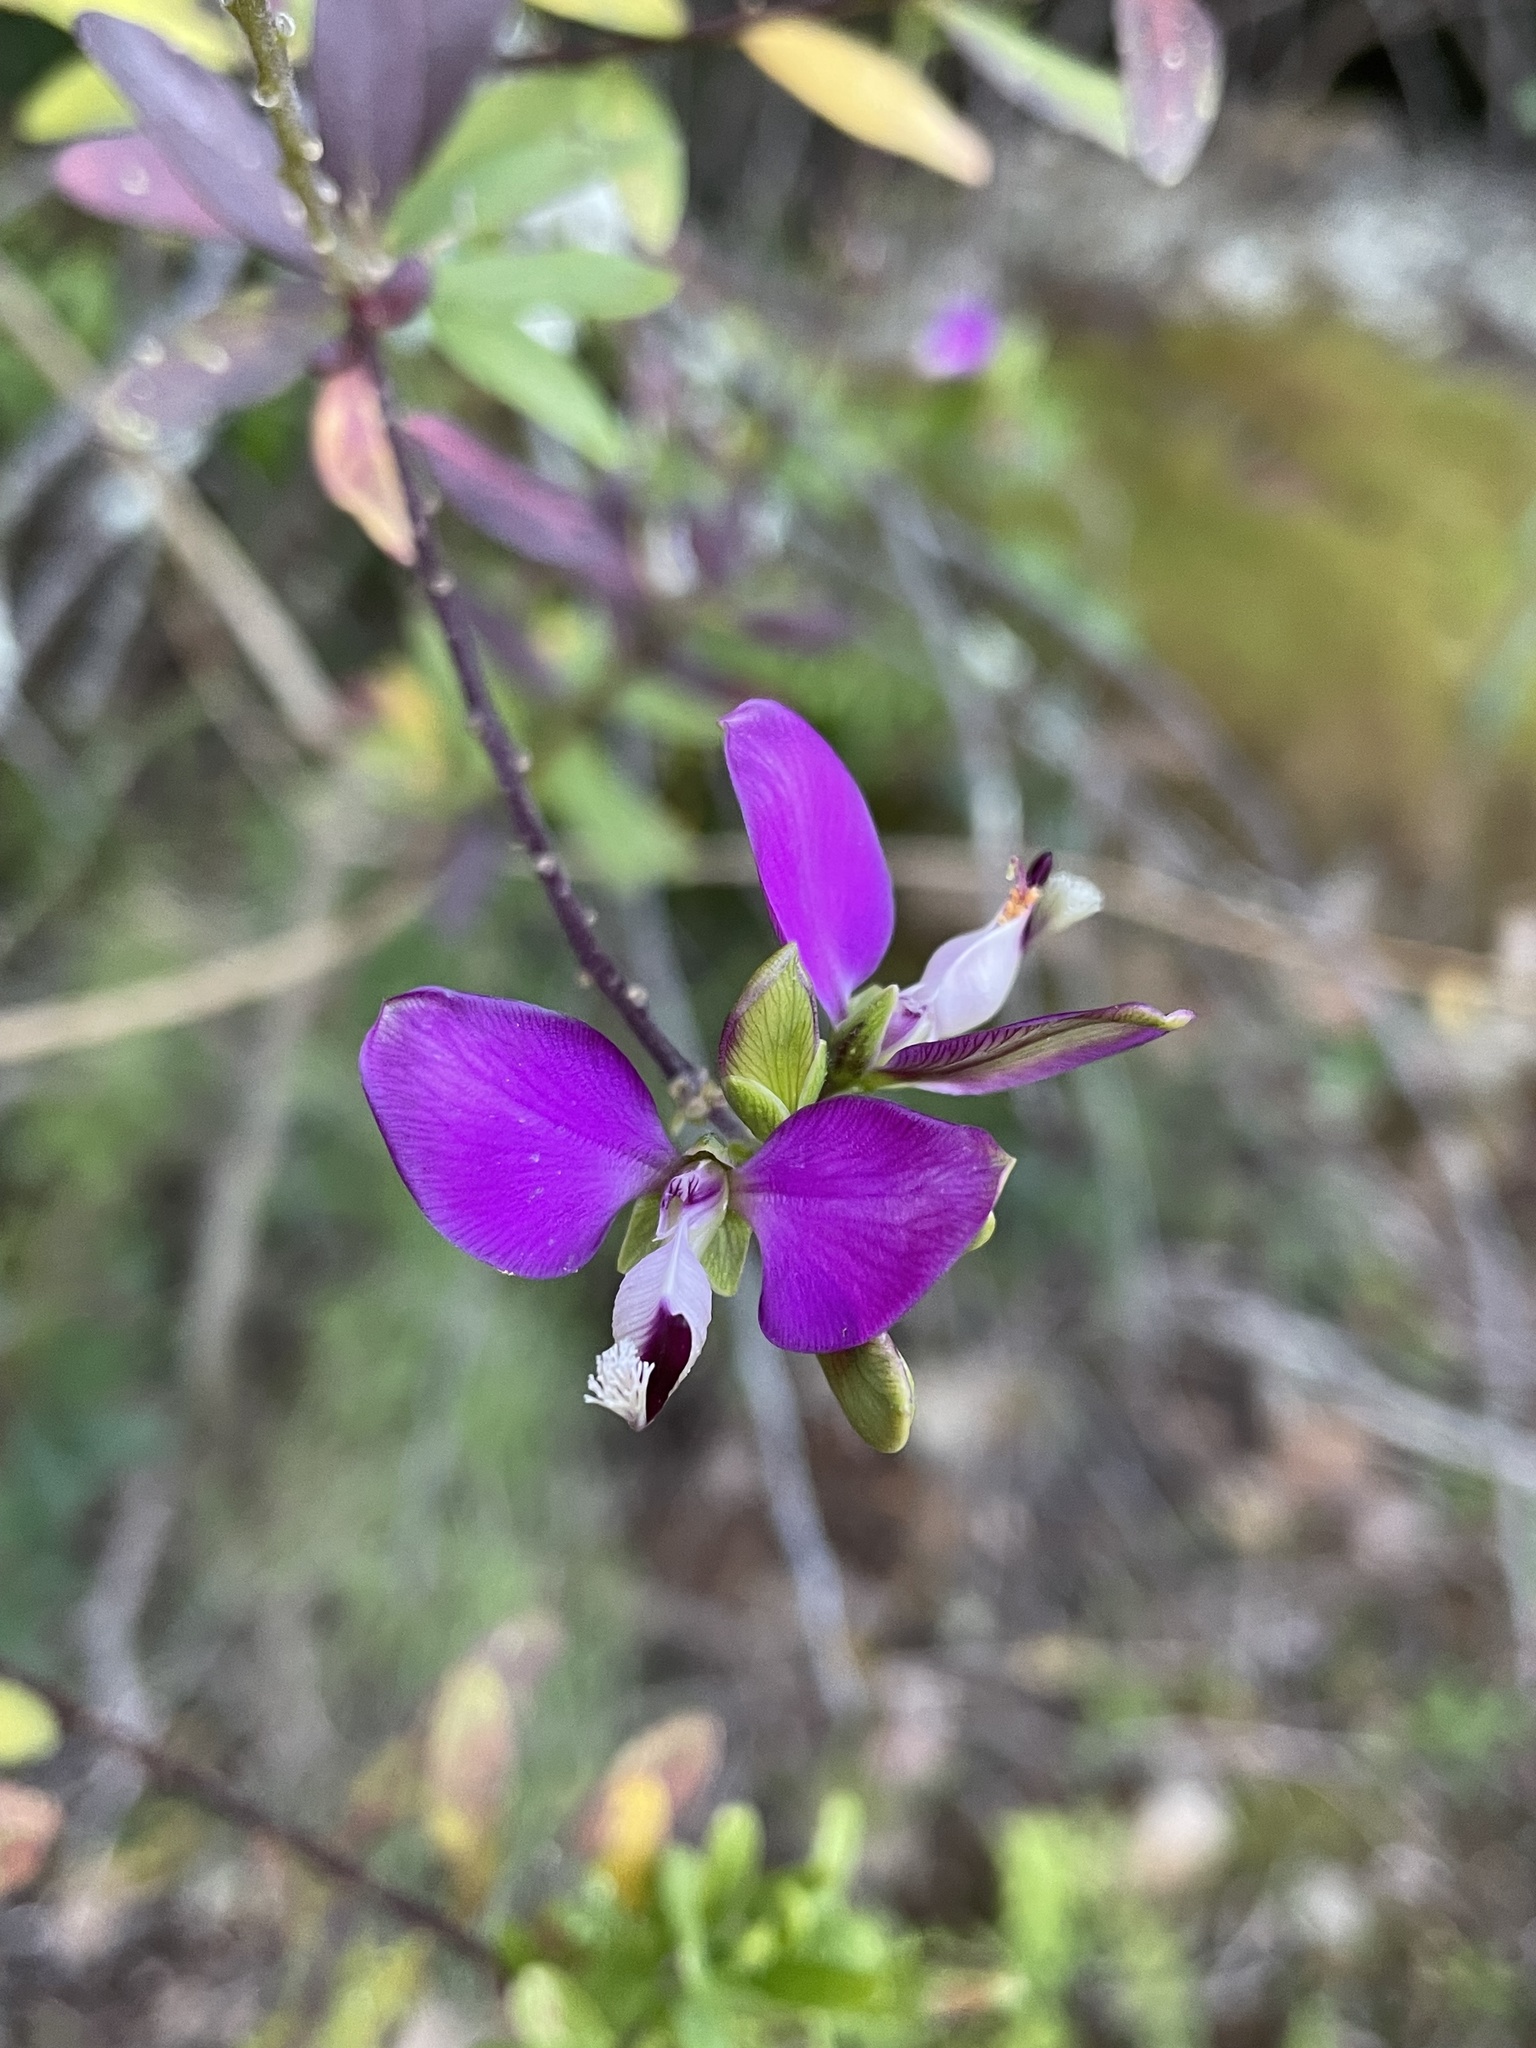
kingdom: Plantae
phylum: Tracheophyta
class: Magnoliopsida
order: Fabales
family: Polygalaceae
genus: Polygala
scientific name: Polygala myrtifolia
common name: Myrtle-leaf milkwort
